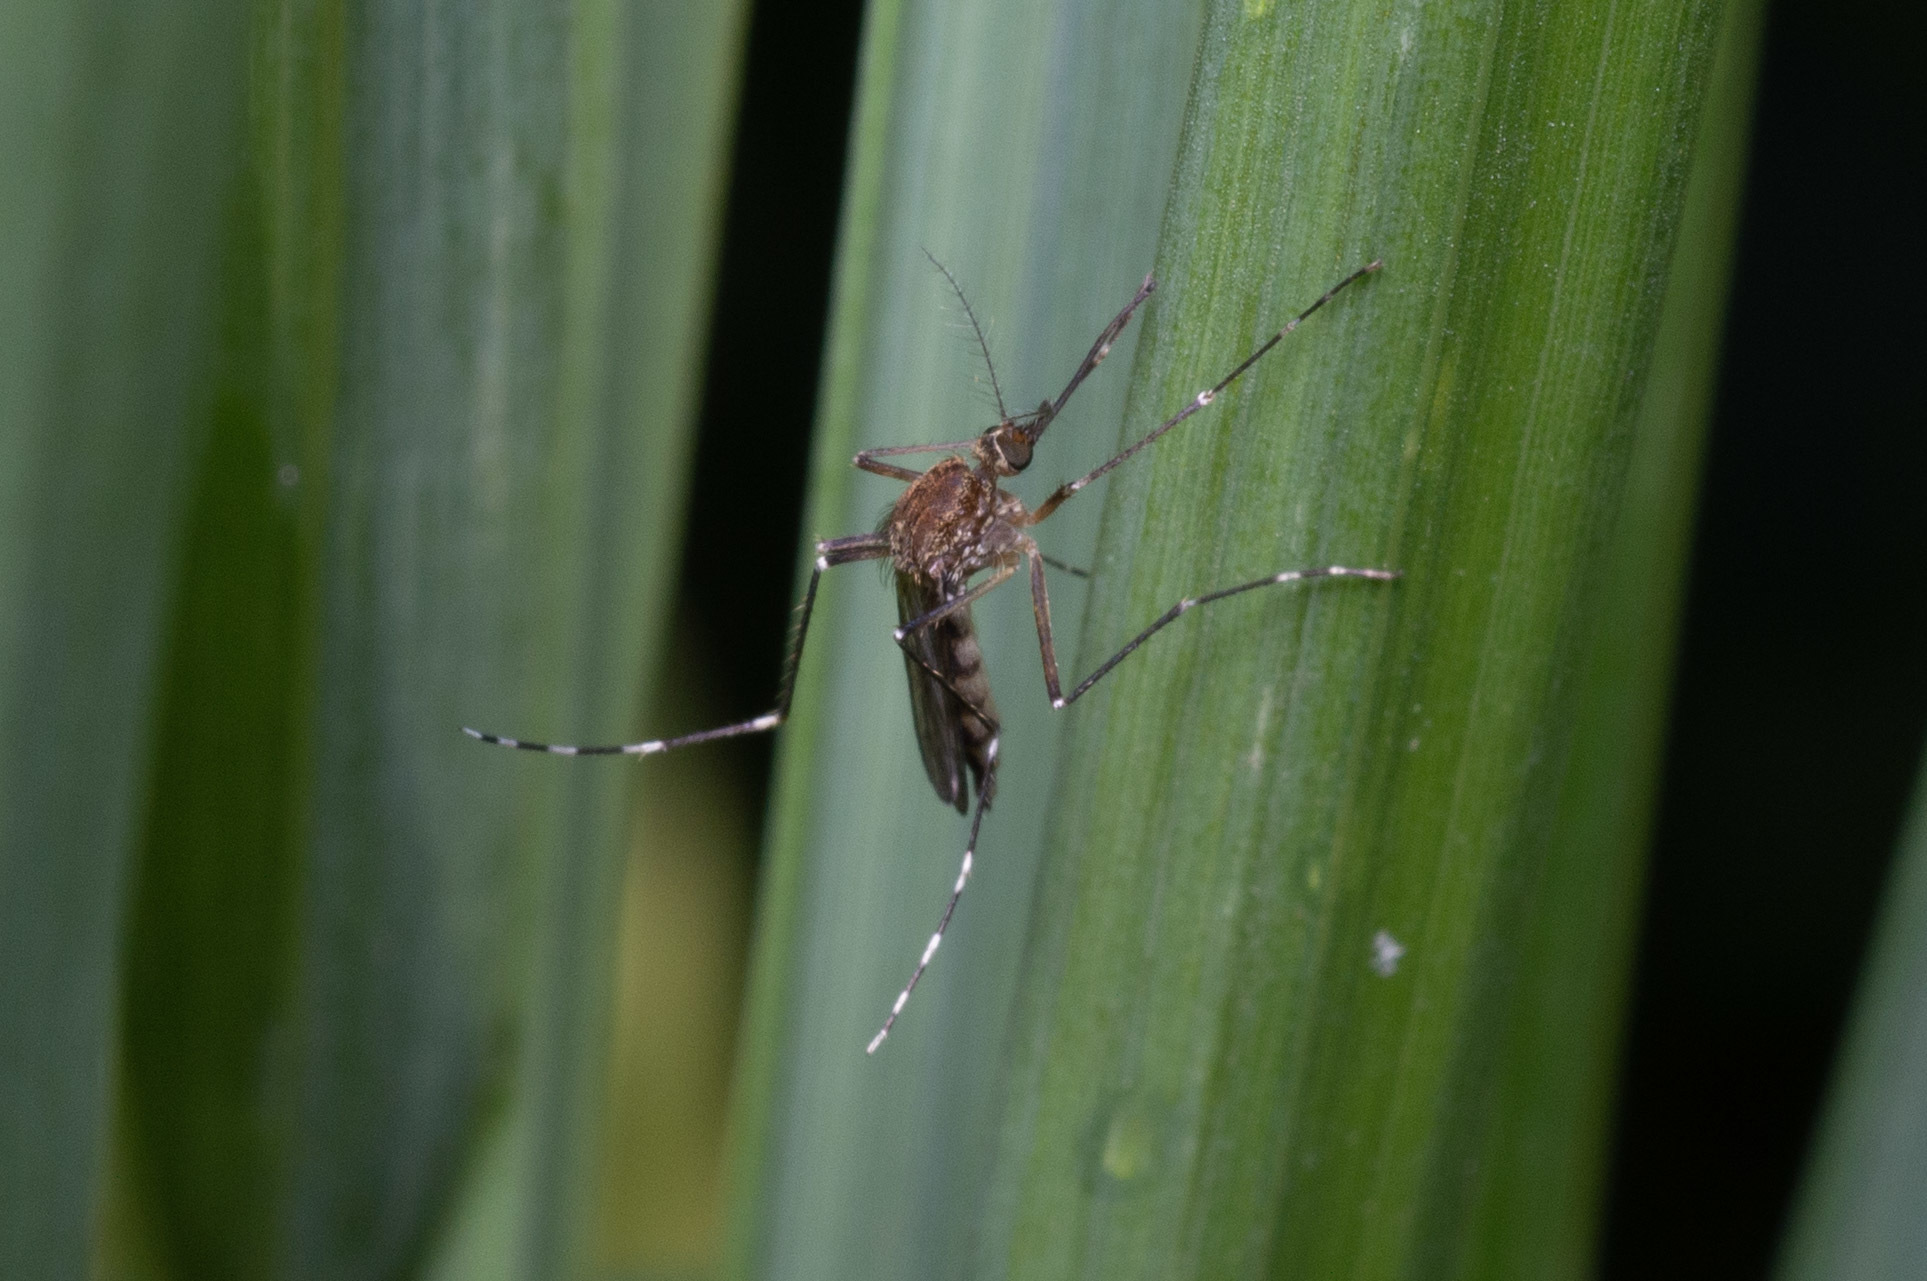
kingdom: Animalia
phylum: Arthropoda
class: Insecta
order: Diptera
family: Culicidae
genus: Aedes
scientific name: Aedes canadensis
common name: Woodland pool mosquito
